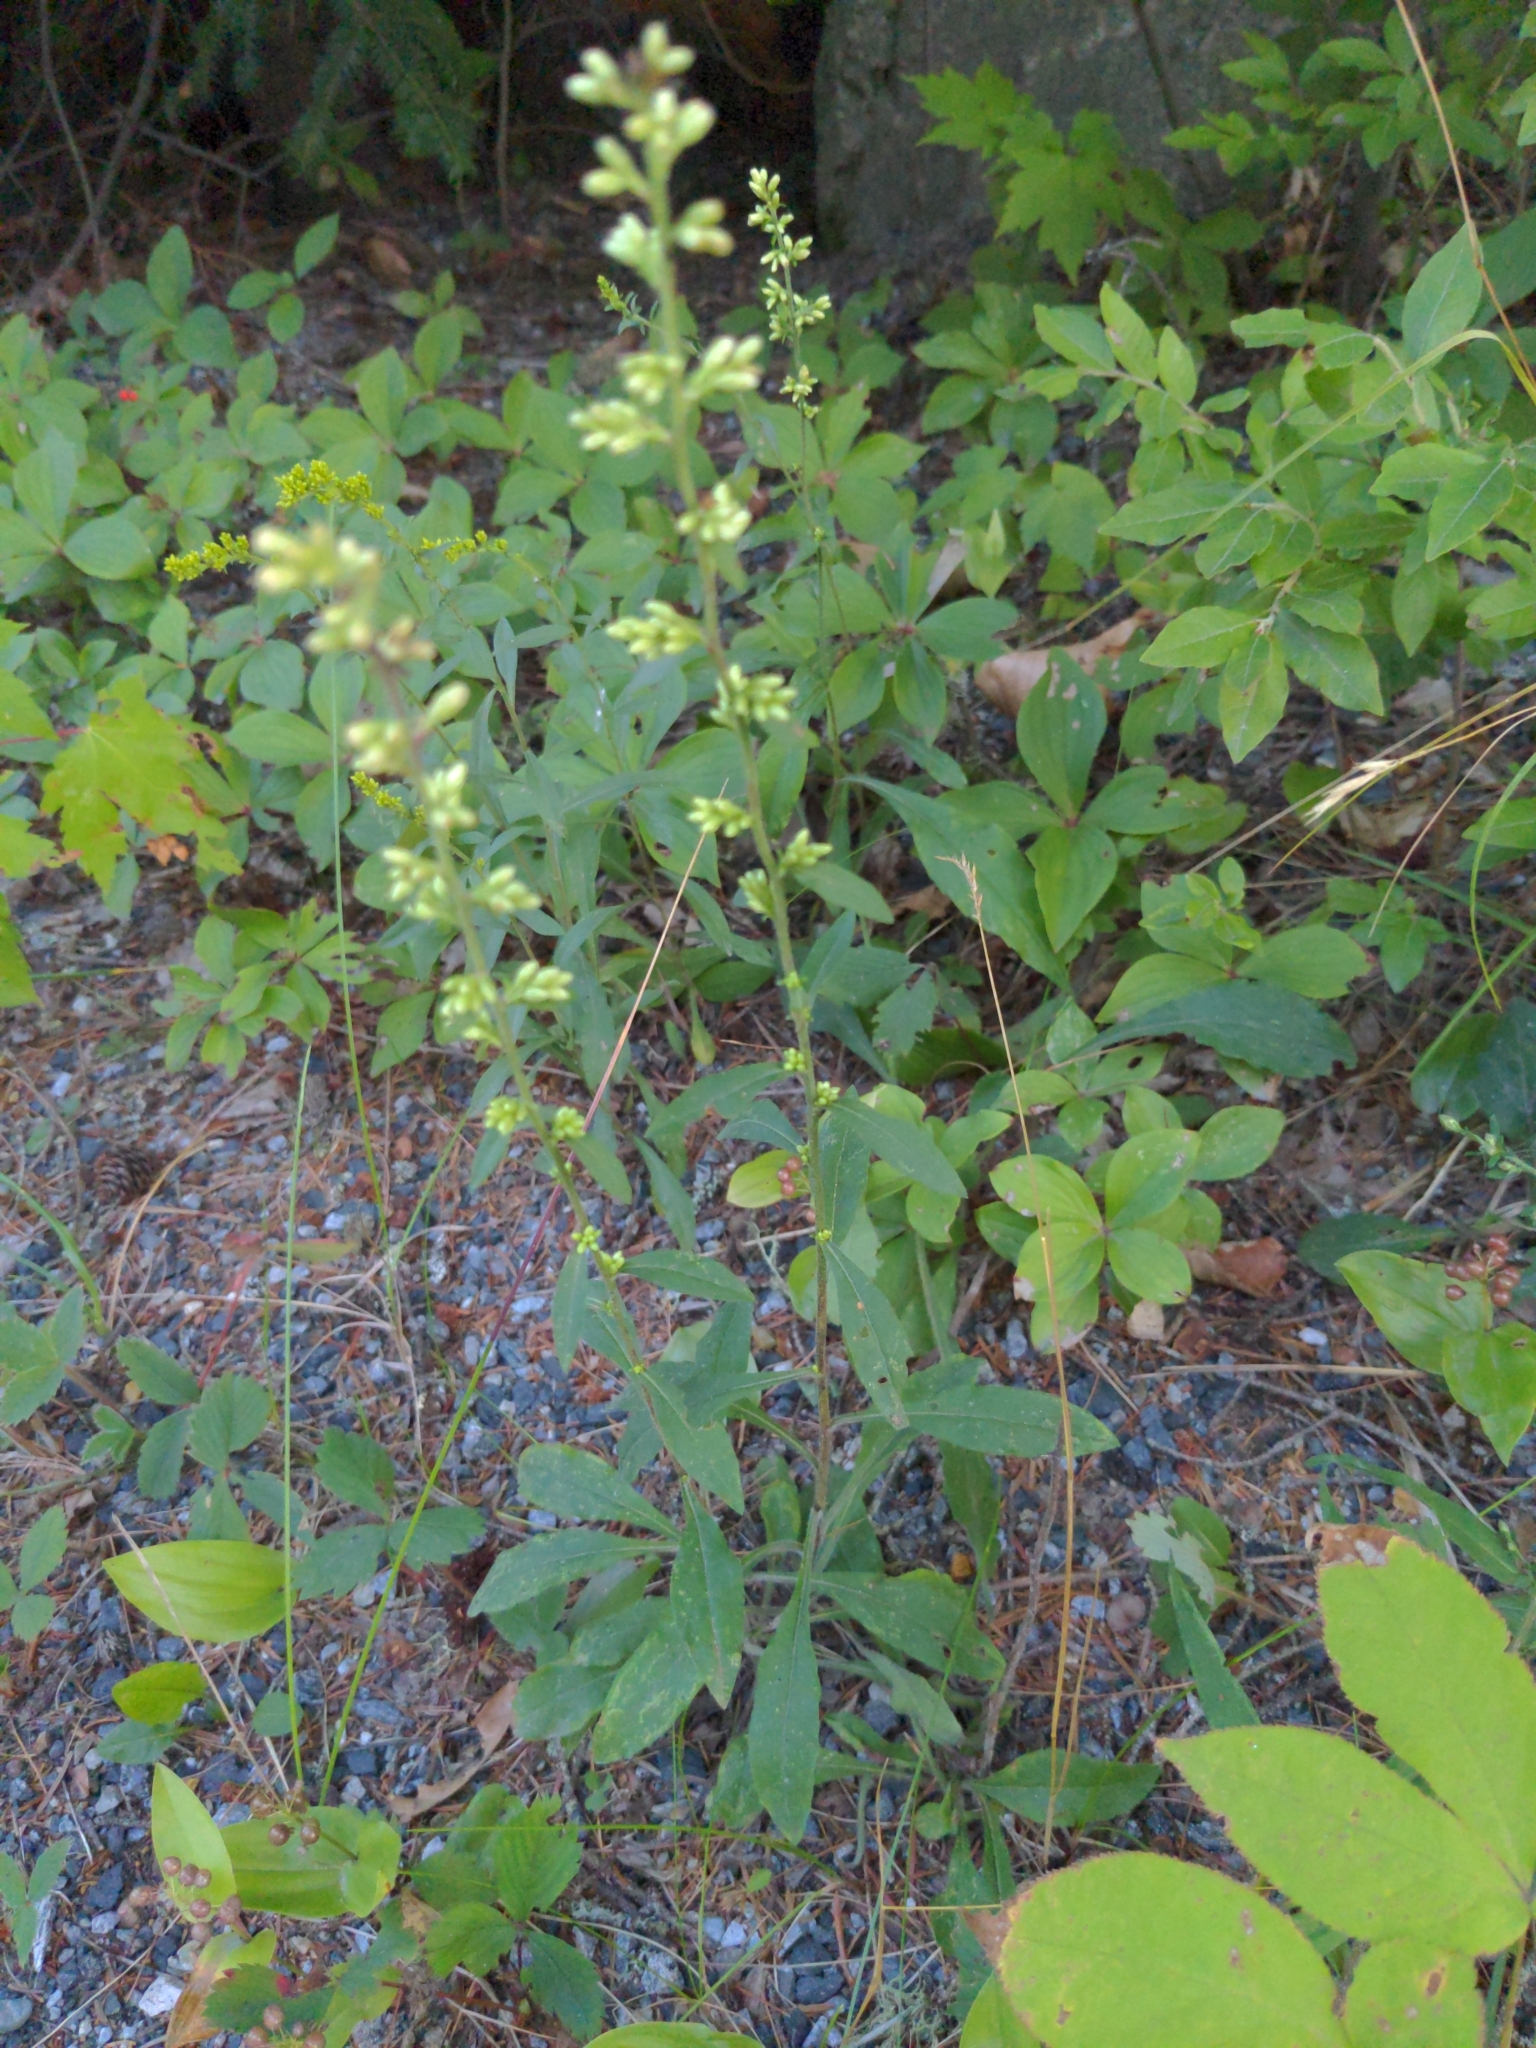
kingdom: Plantae
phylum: Tracheophyta
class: Magnoliopsida
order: Asterales
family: Asteraceae
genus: Solidago
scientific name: Solidago bicolor
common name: Silverrod
